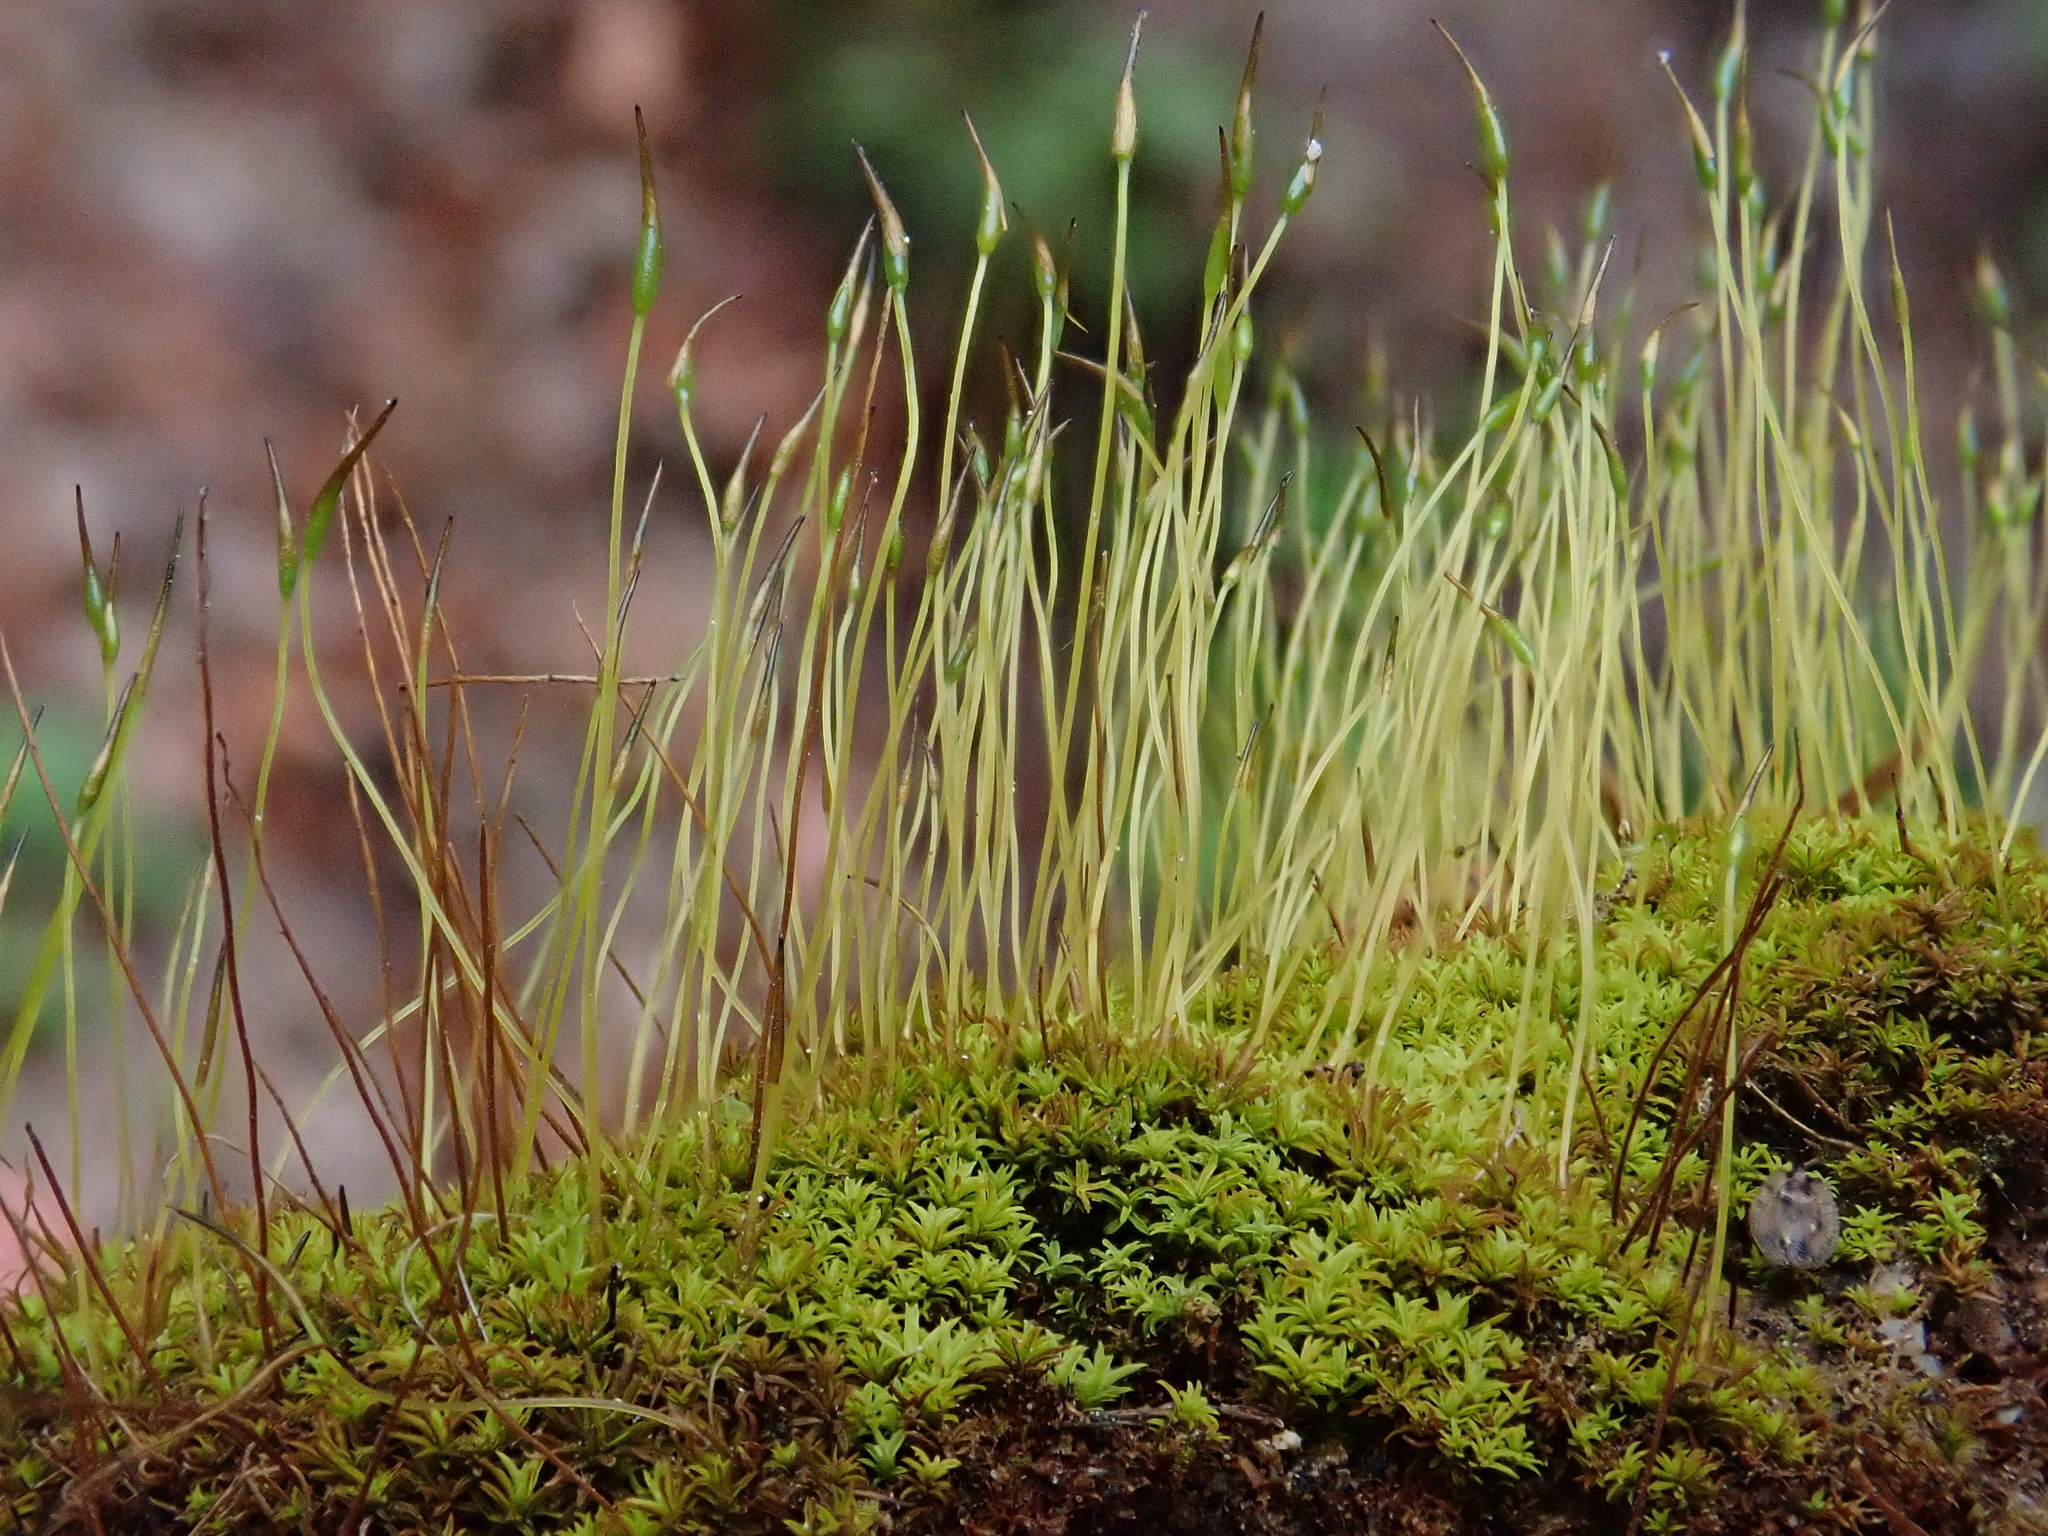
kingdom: Plantae
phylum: Bryophyta
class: Bryopsida
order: Pottiales
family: Pottiaceae
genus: Streblotrichum
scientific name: Streblotrichum convolutum
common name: Lesser bird's-claw beard-moss
